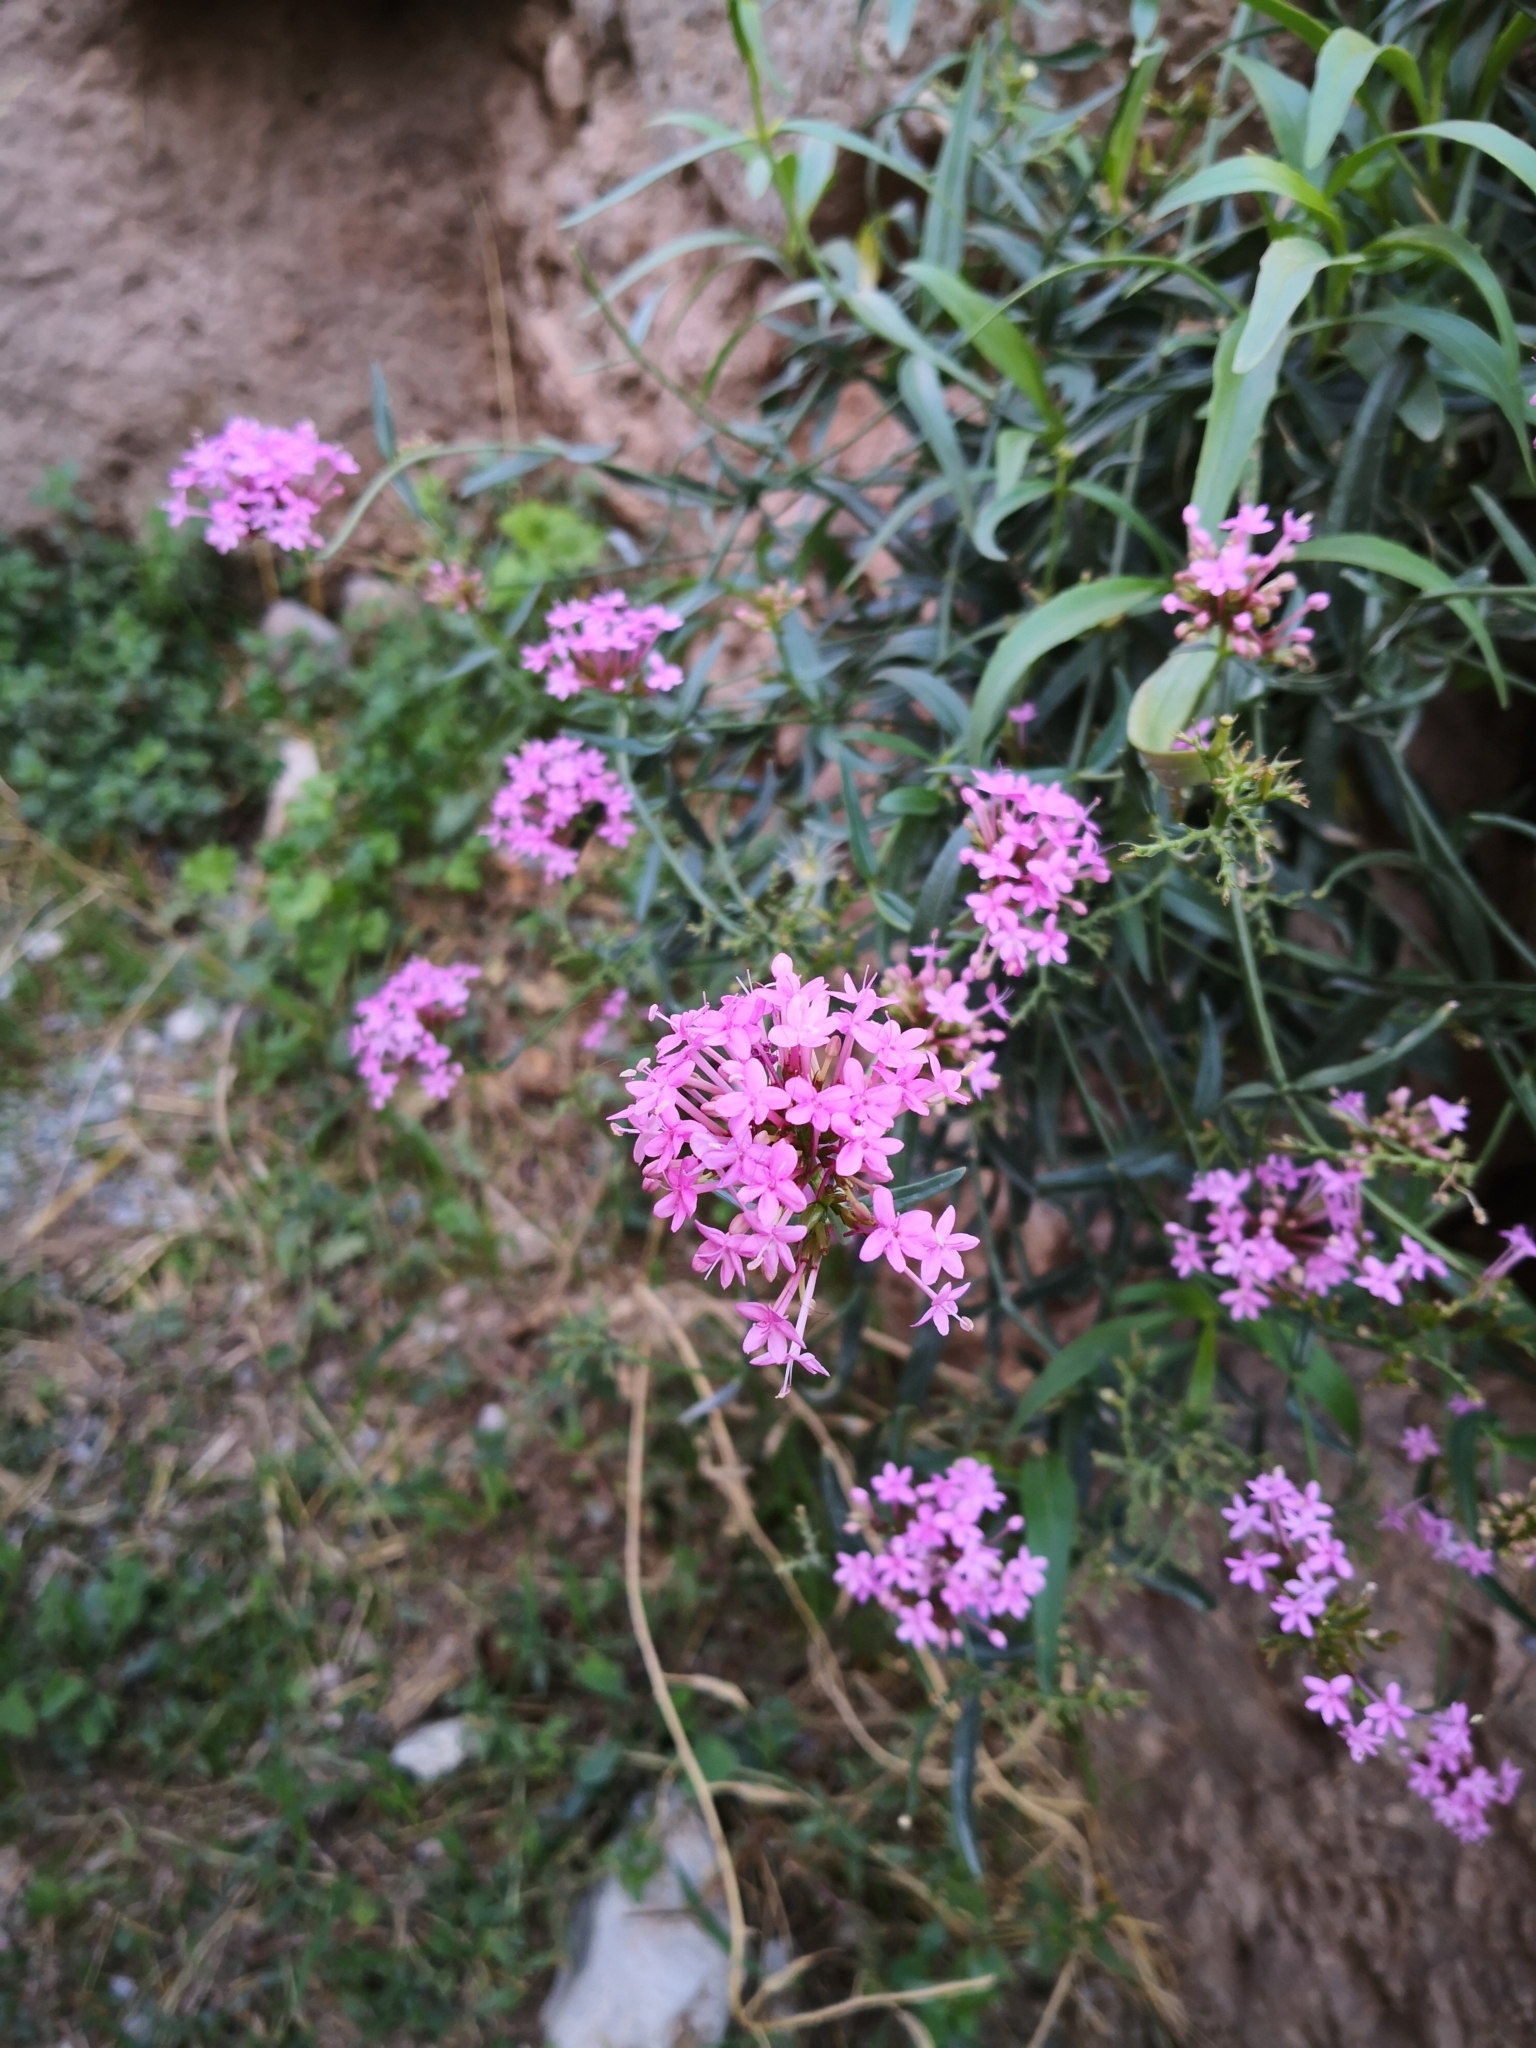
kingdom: Plantae
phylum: Tracheophyta
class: Magnoliopsida
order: Dipsacales
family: Caprifoliaceae
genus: Centranthus
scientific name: Centranthus ruber
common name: Red valerian
